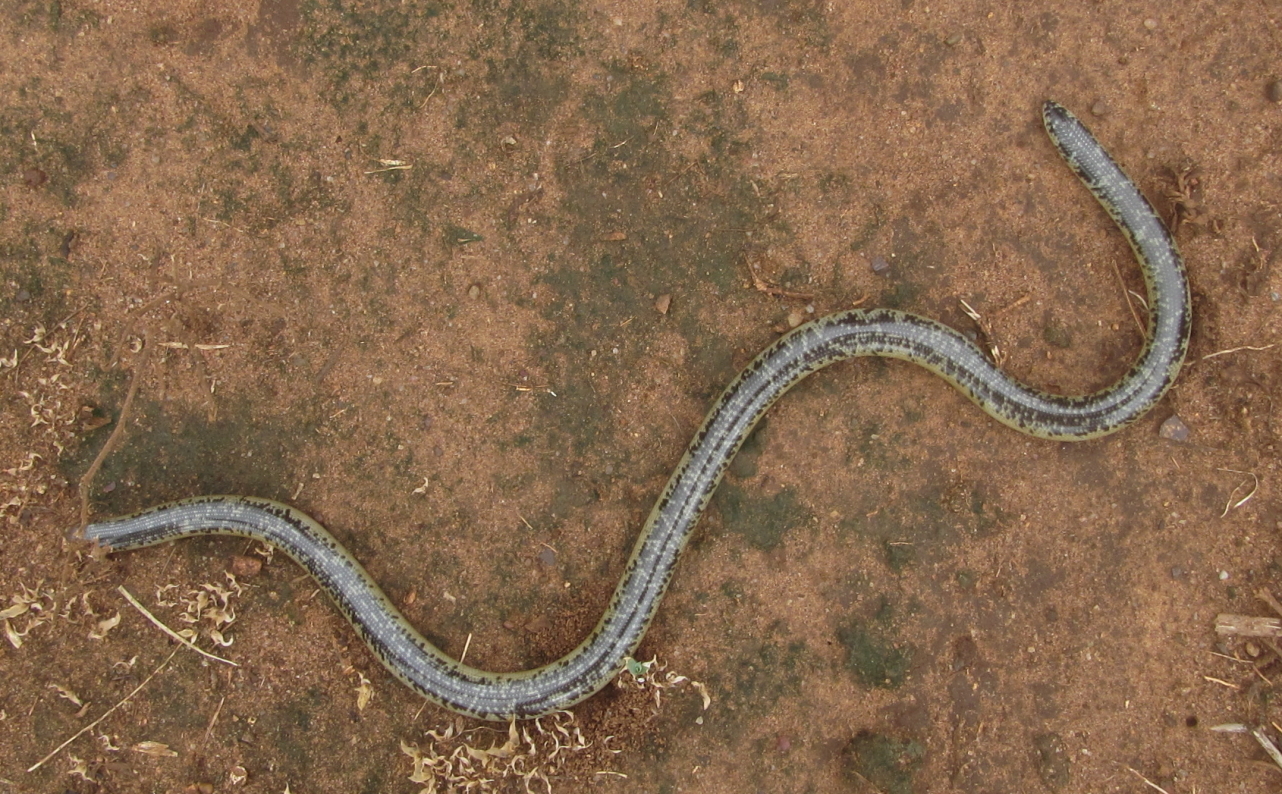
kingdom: Animalia
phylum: Chordata
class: Squamata
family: Typhlopidae
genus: Afrotyphlops
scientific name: Afrotyphlops schlegelii
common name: Schlegel's giant blind snake
